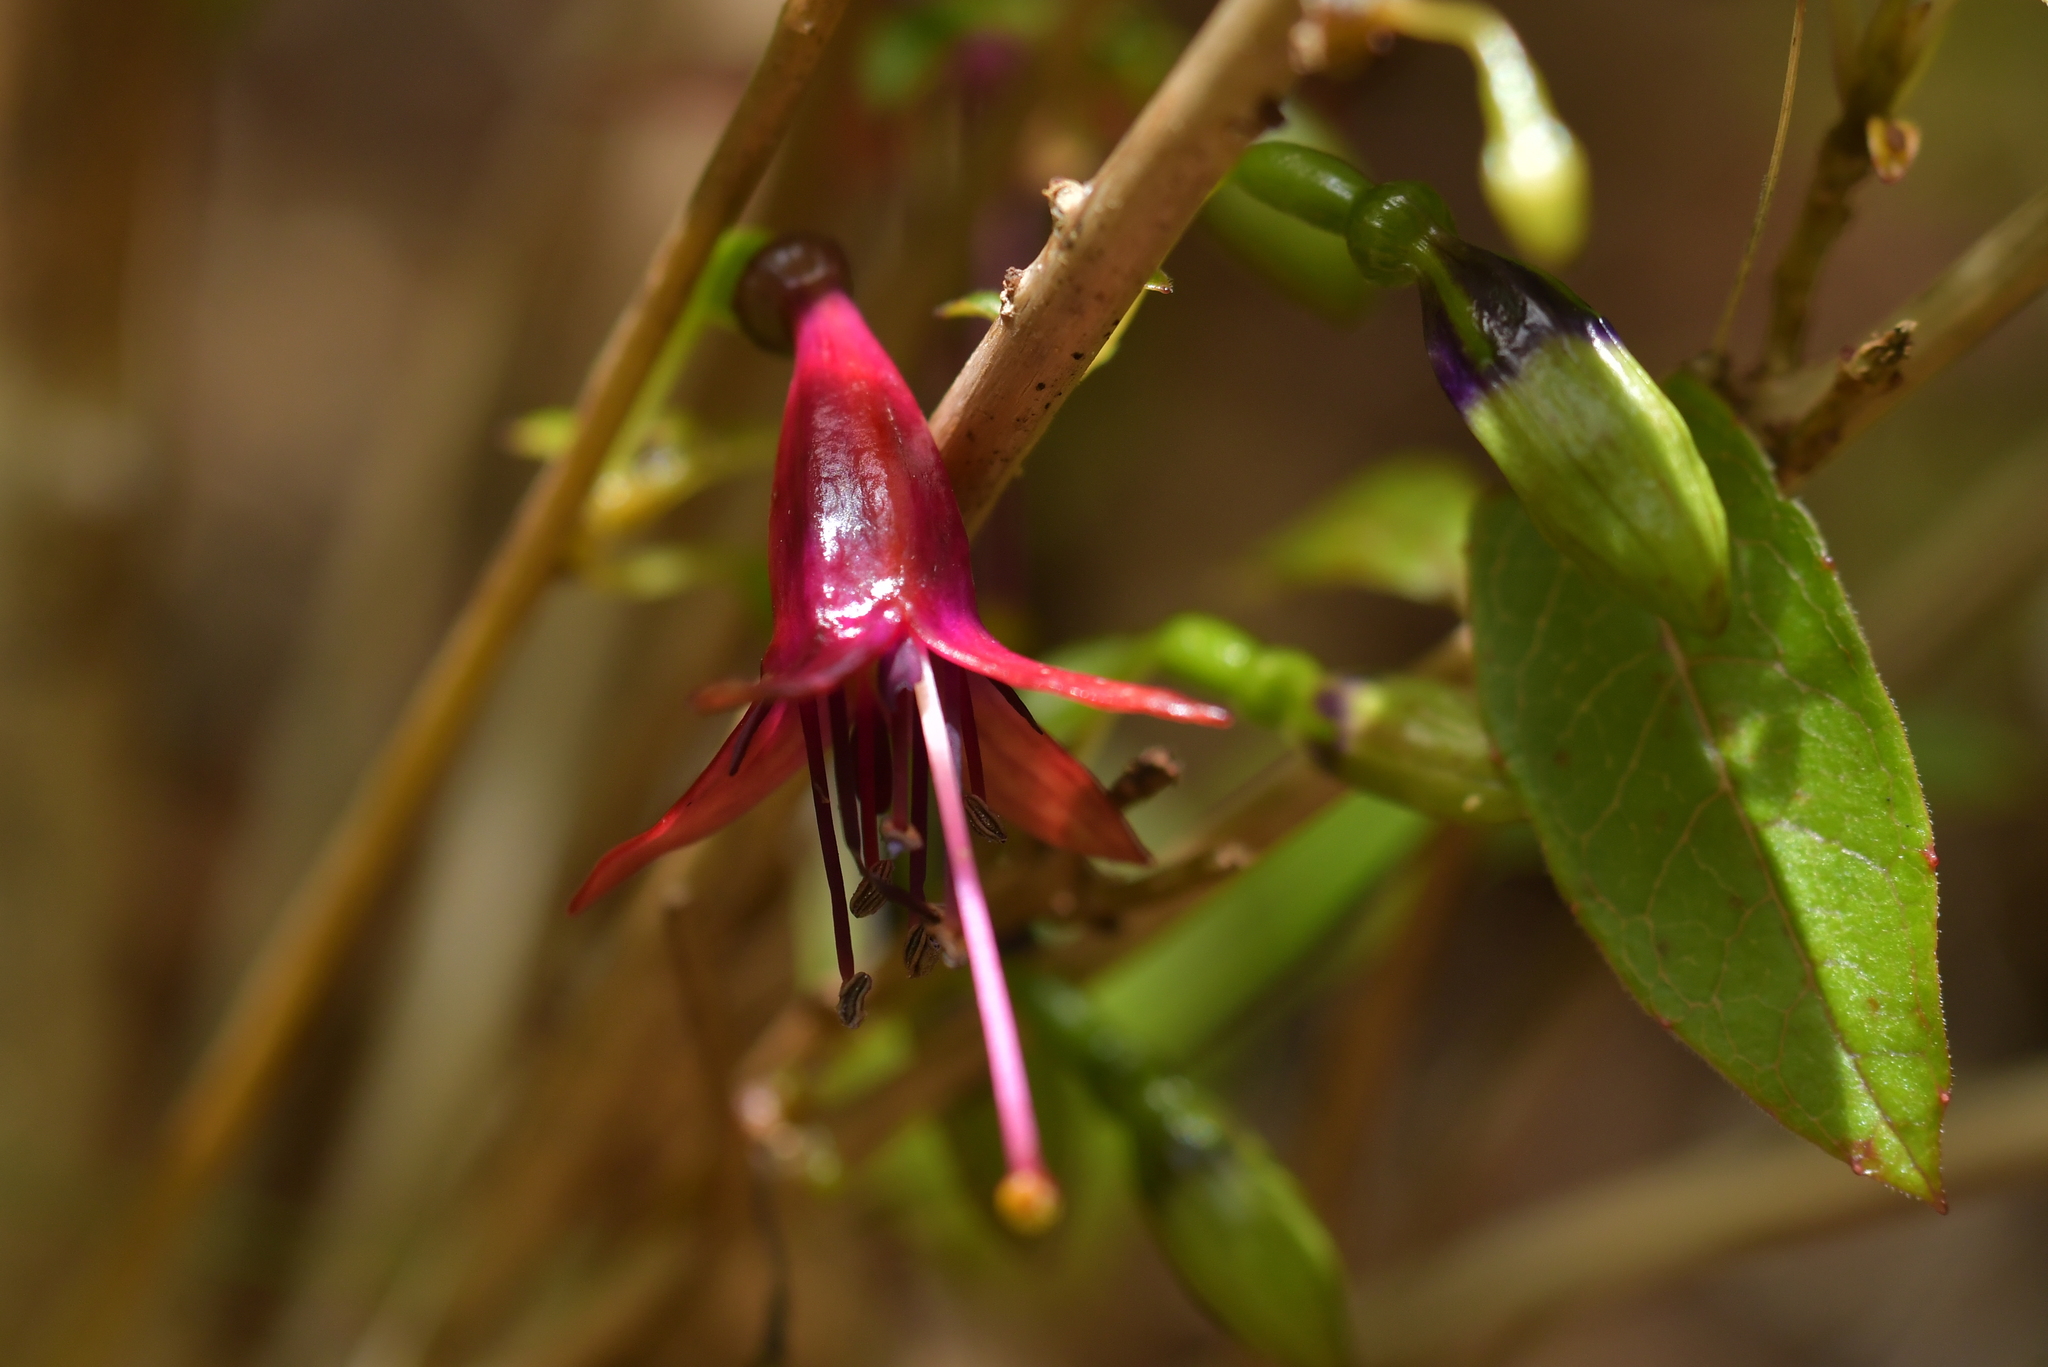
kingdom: Plantae
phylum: Tracheophyta
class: Magnoliopsida
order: Myrtales
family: Onagraceae
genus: Fuchsia
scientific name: Fuchsia excorticata
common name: Tree fuchsia
